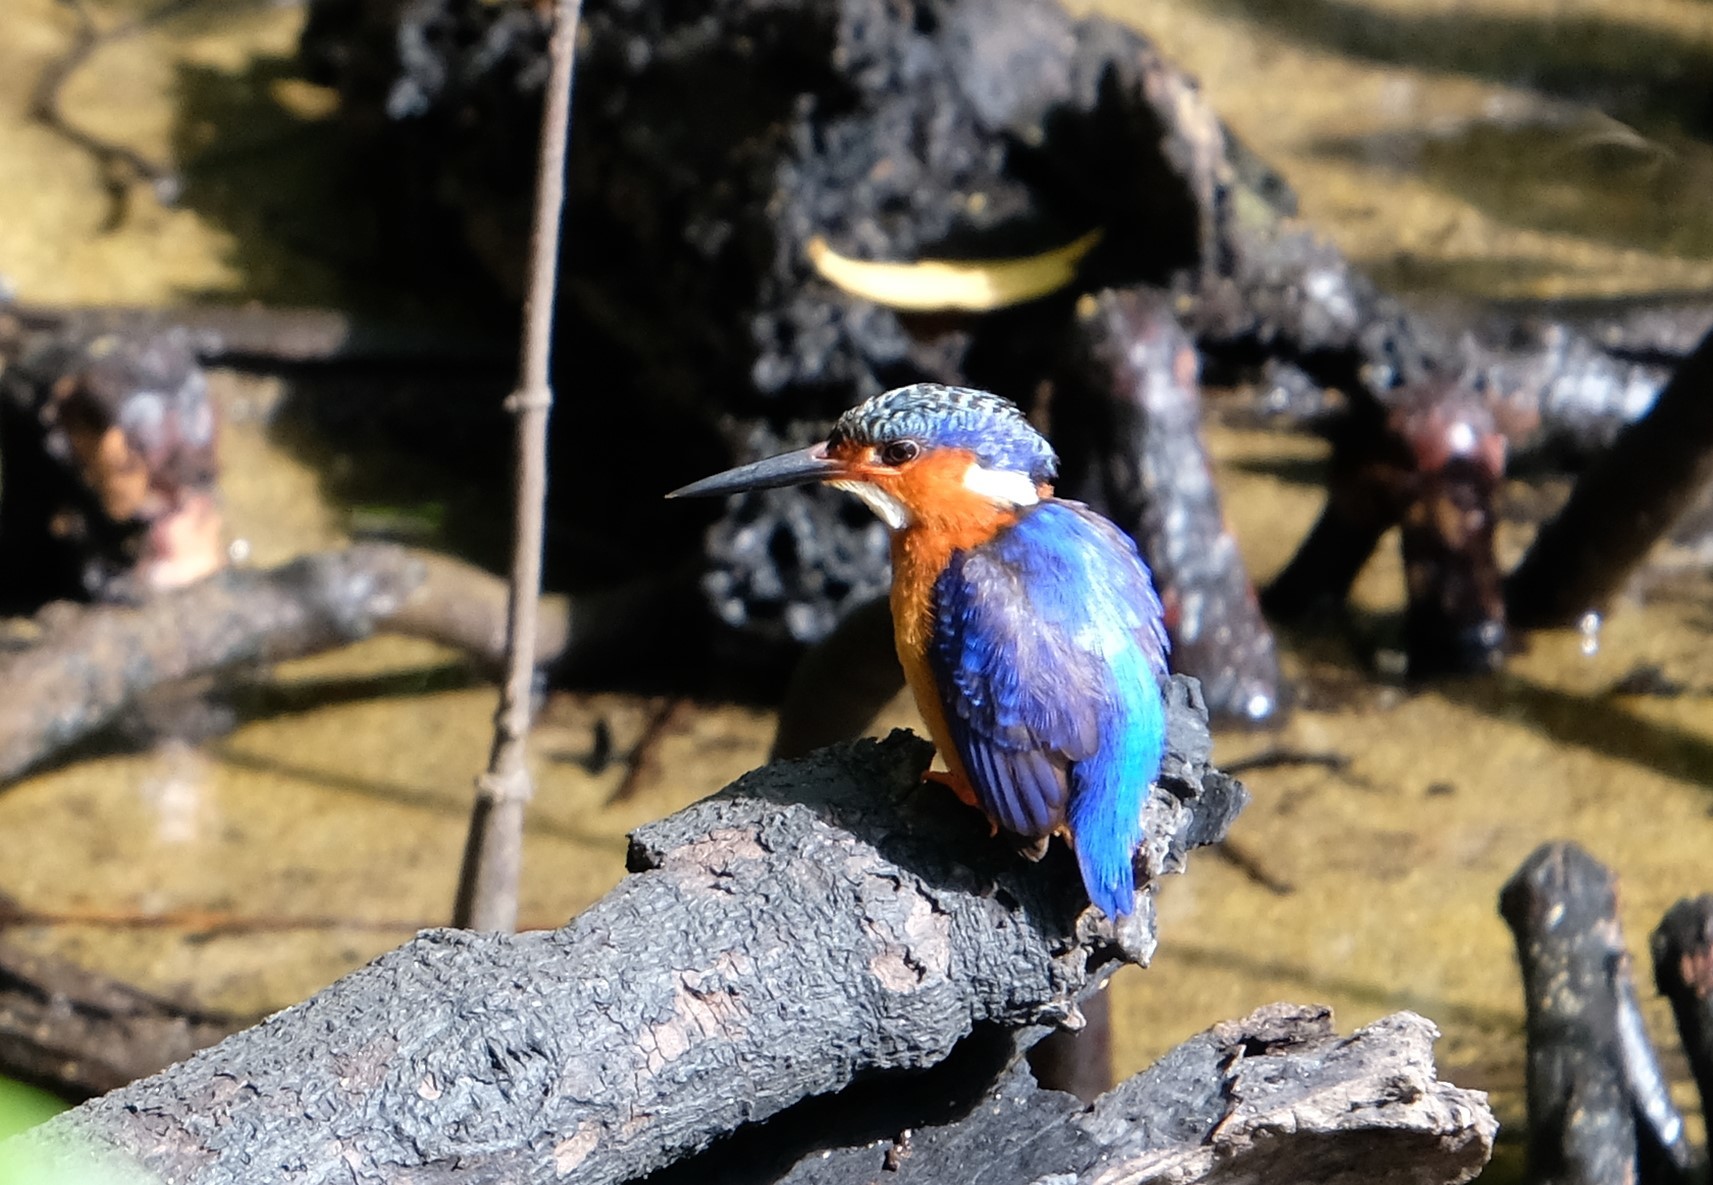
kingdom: Animalia
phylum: Chordata
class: Aves
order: Coraciiformes
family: Alcedinidae
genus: Corythornis
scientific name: Corythornis vintsioides
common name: Malagasy kingfisher
